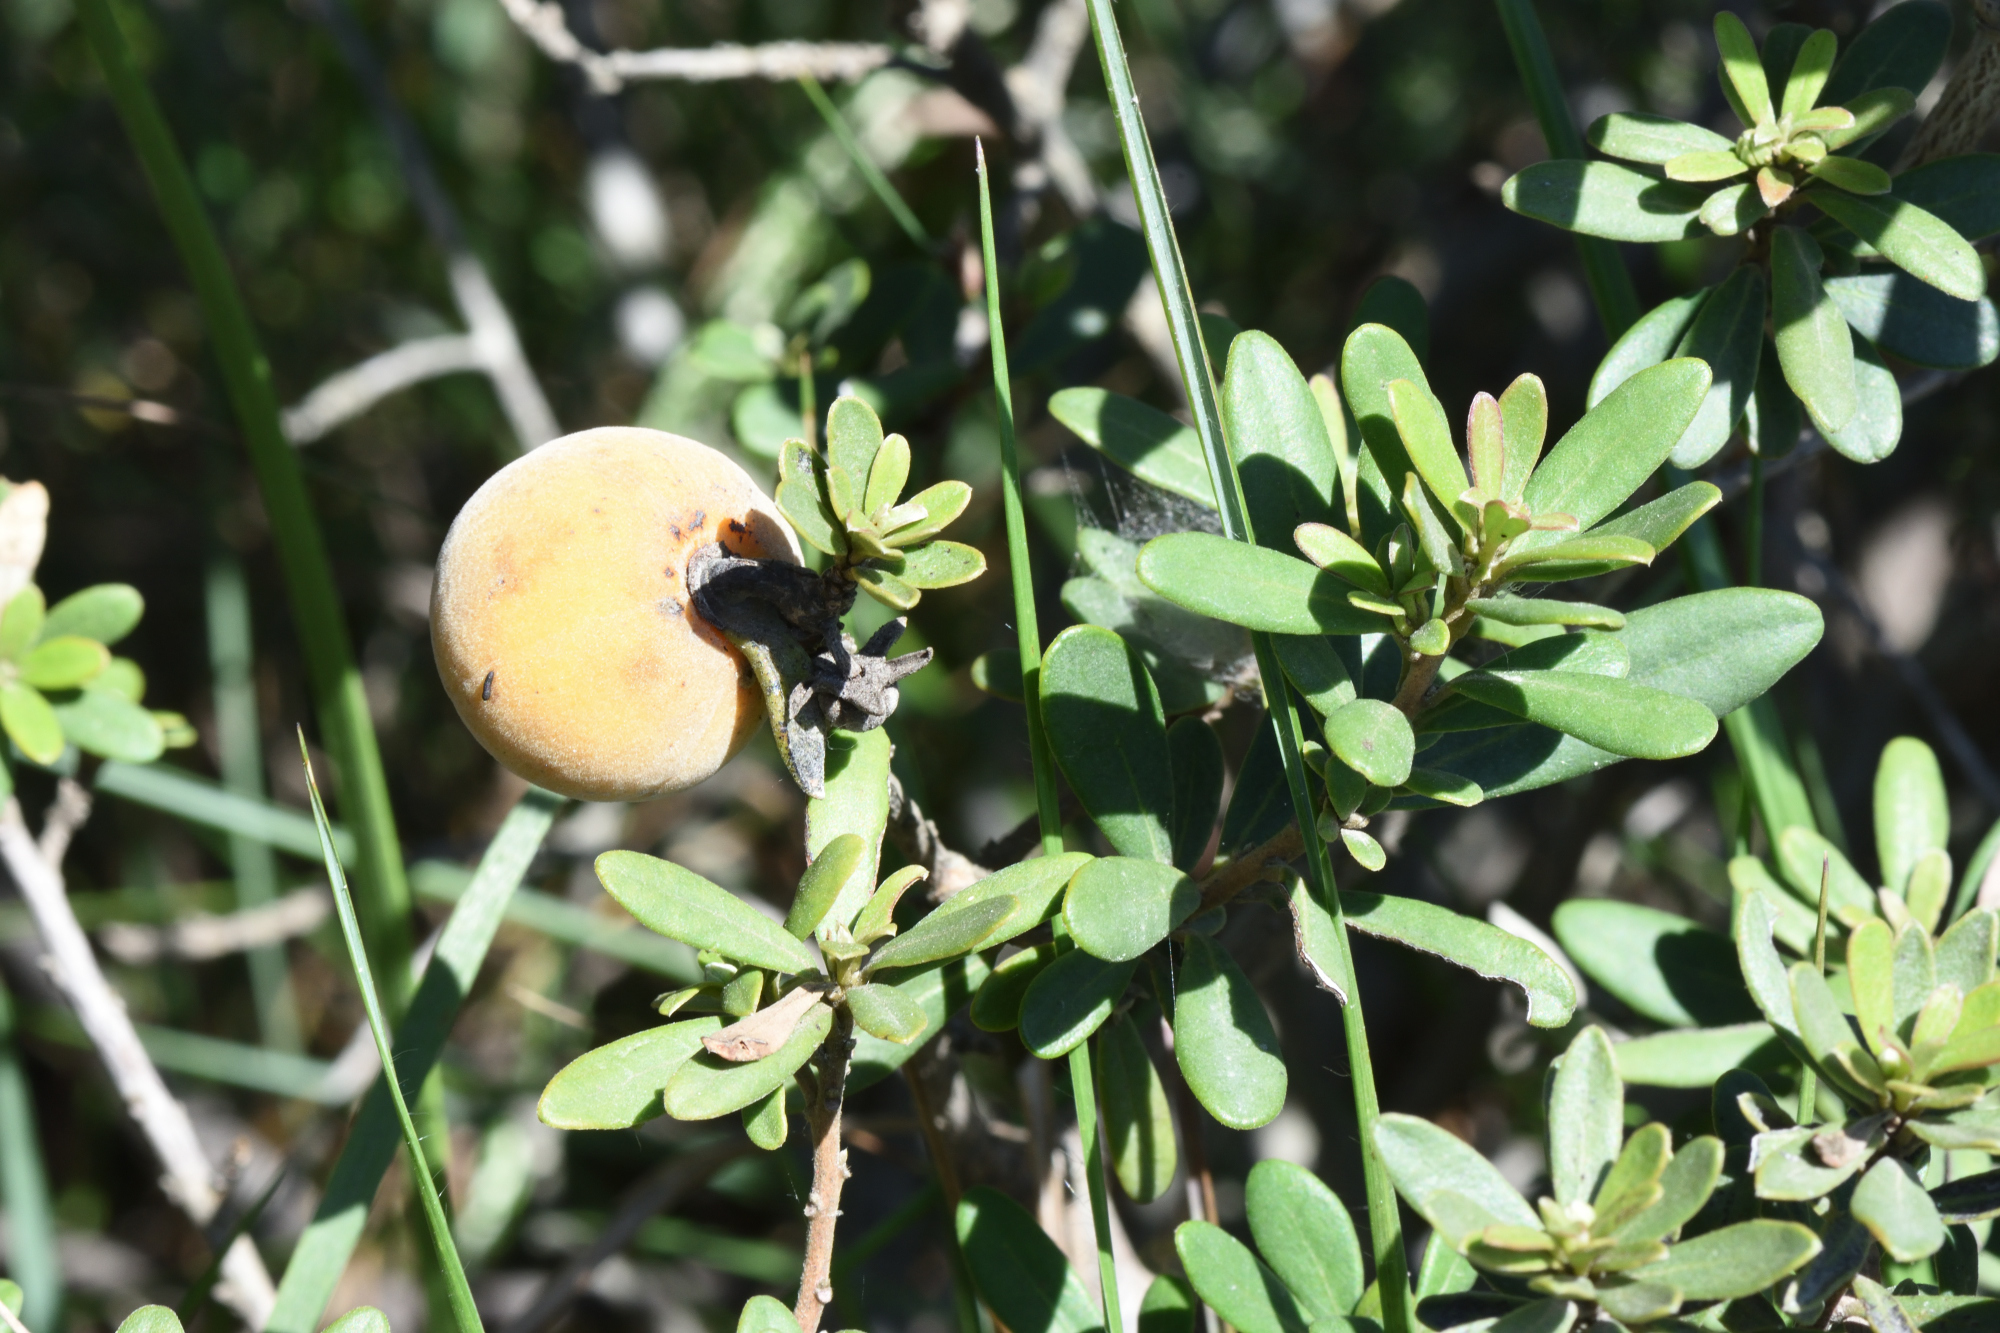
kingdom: Plantae
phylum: Tracheophyta
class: Magnoliopsida
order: Ericales
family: Ebenaceae
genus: Diospyros
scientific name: Diospyros dichrophylla
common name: Common star-apple
